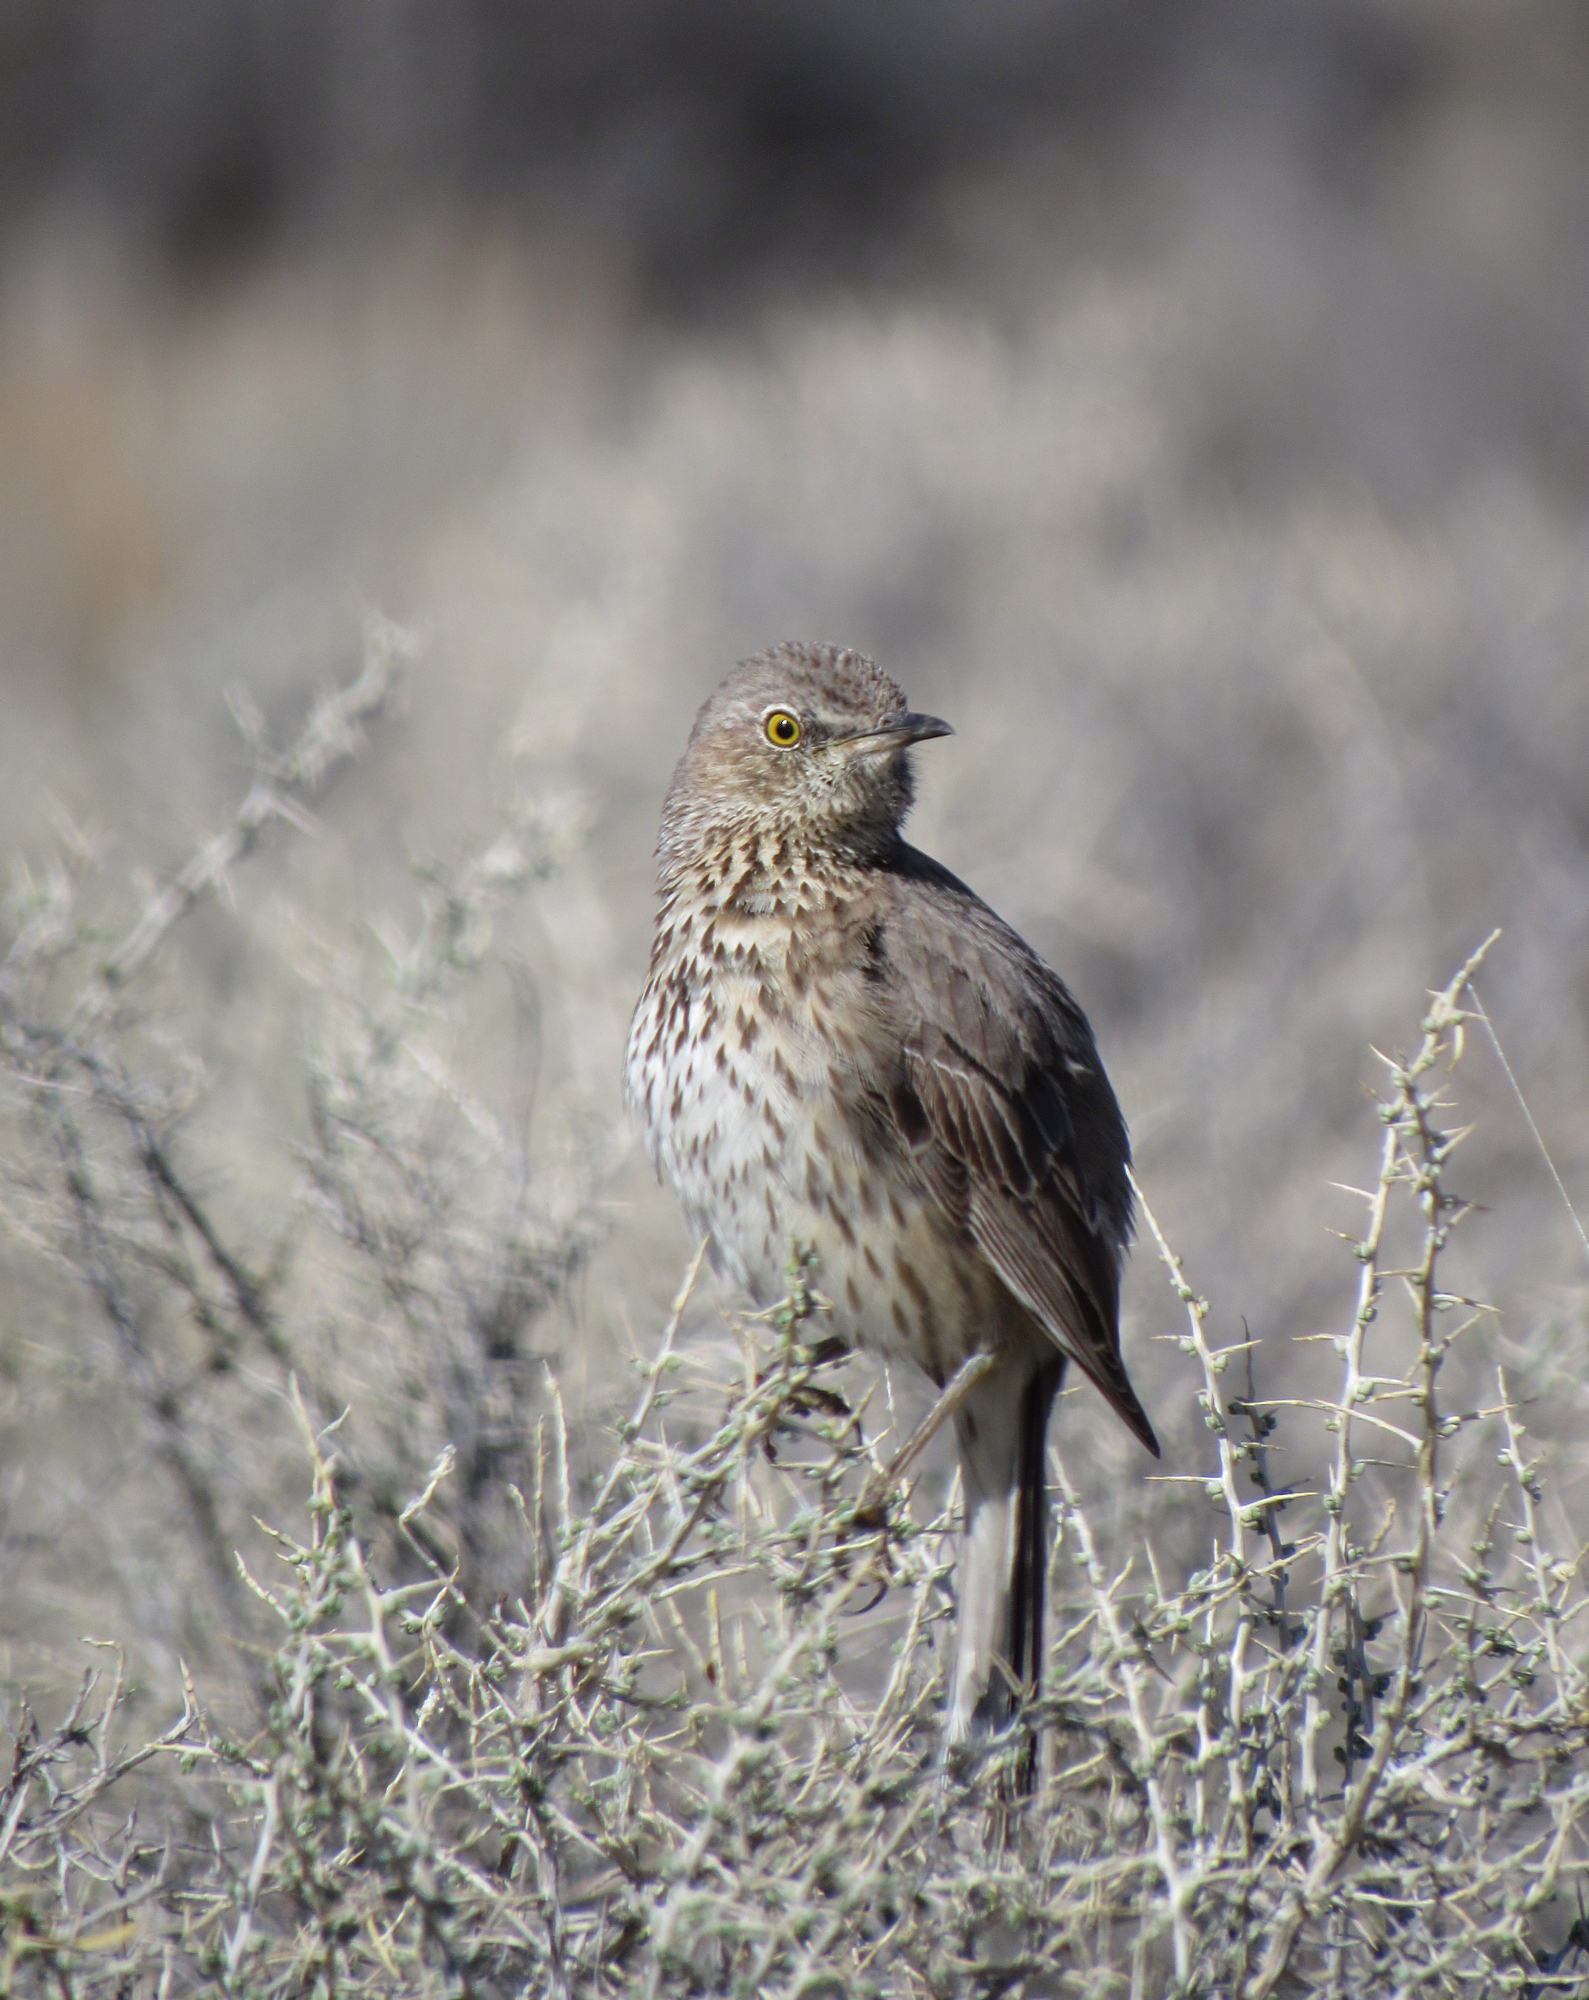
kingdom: Animalia
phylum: Chordata
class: Aves
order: Passeriformes
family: Mimidae
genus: Oreoscoptes
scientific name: Oreoscoptes montanus
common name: Sage thrasher
